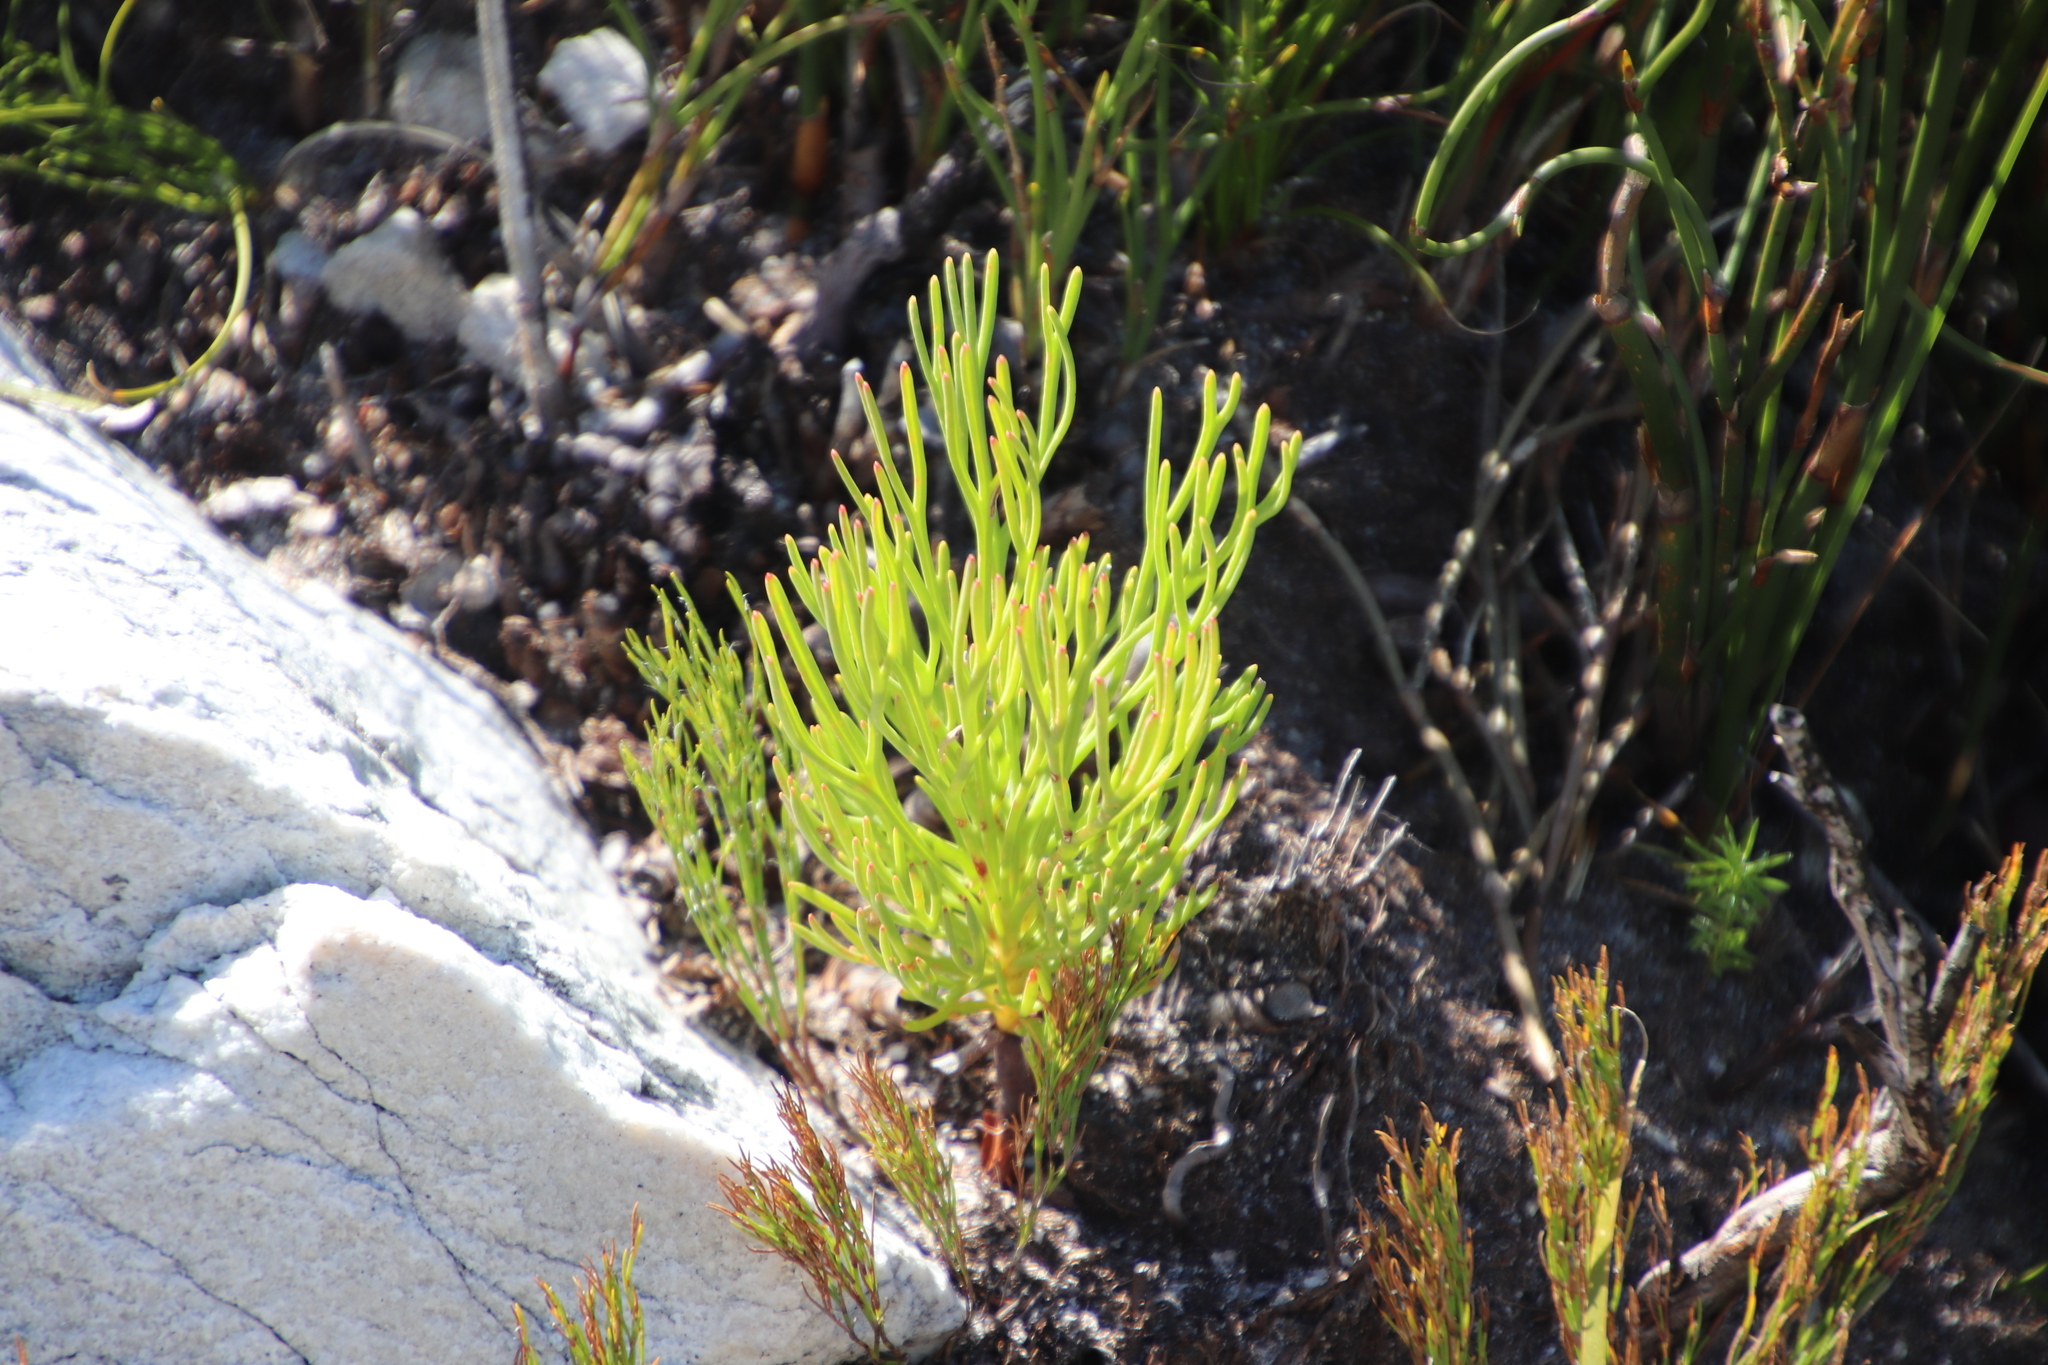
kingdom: Plantae
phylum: Tracheophyta
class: Magnoliopsida
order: Proteales
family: Proteaceae
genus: Paranomus
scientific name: Paranomus sceptrum-gustavianus
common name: King gustav's sceptre
